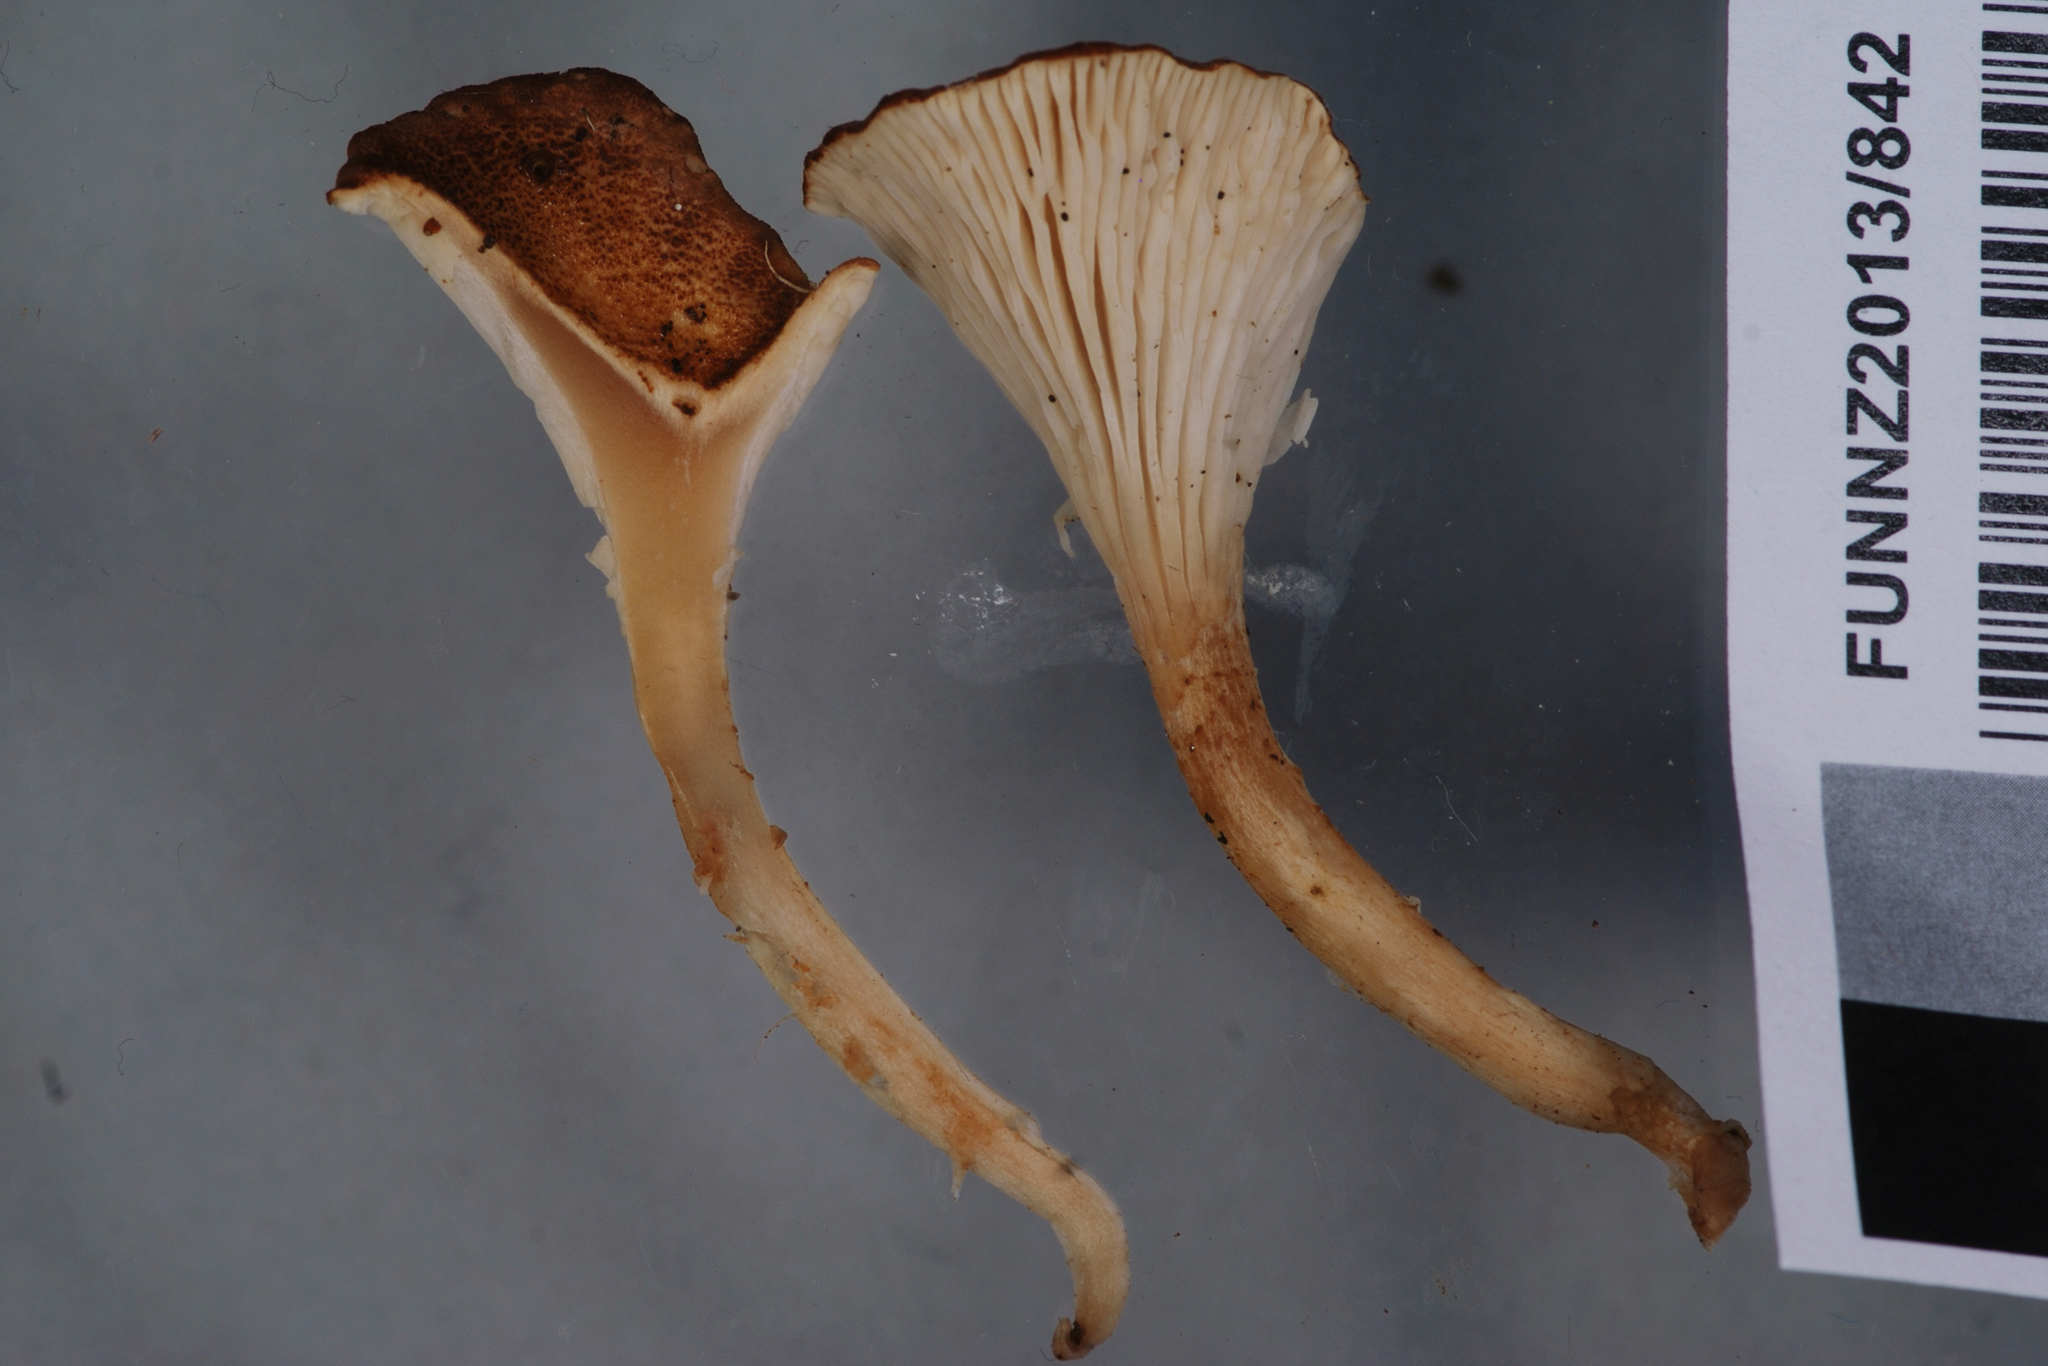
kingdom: Fungi
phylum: Basidiomycota
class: Agaricomycetes
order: Cantharellales
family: Hydnaceae
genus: Cantharellus
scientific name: Cantharellus umbriceps
